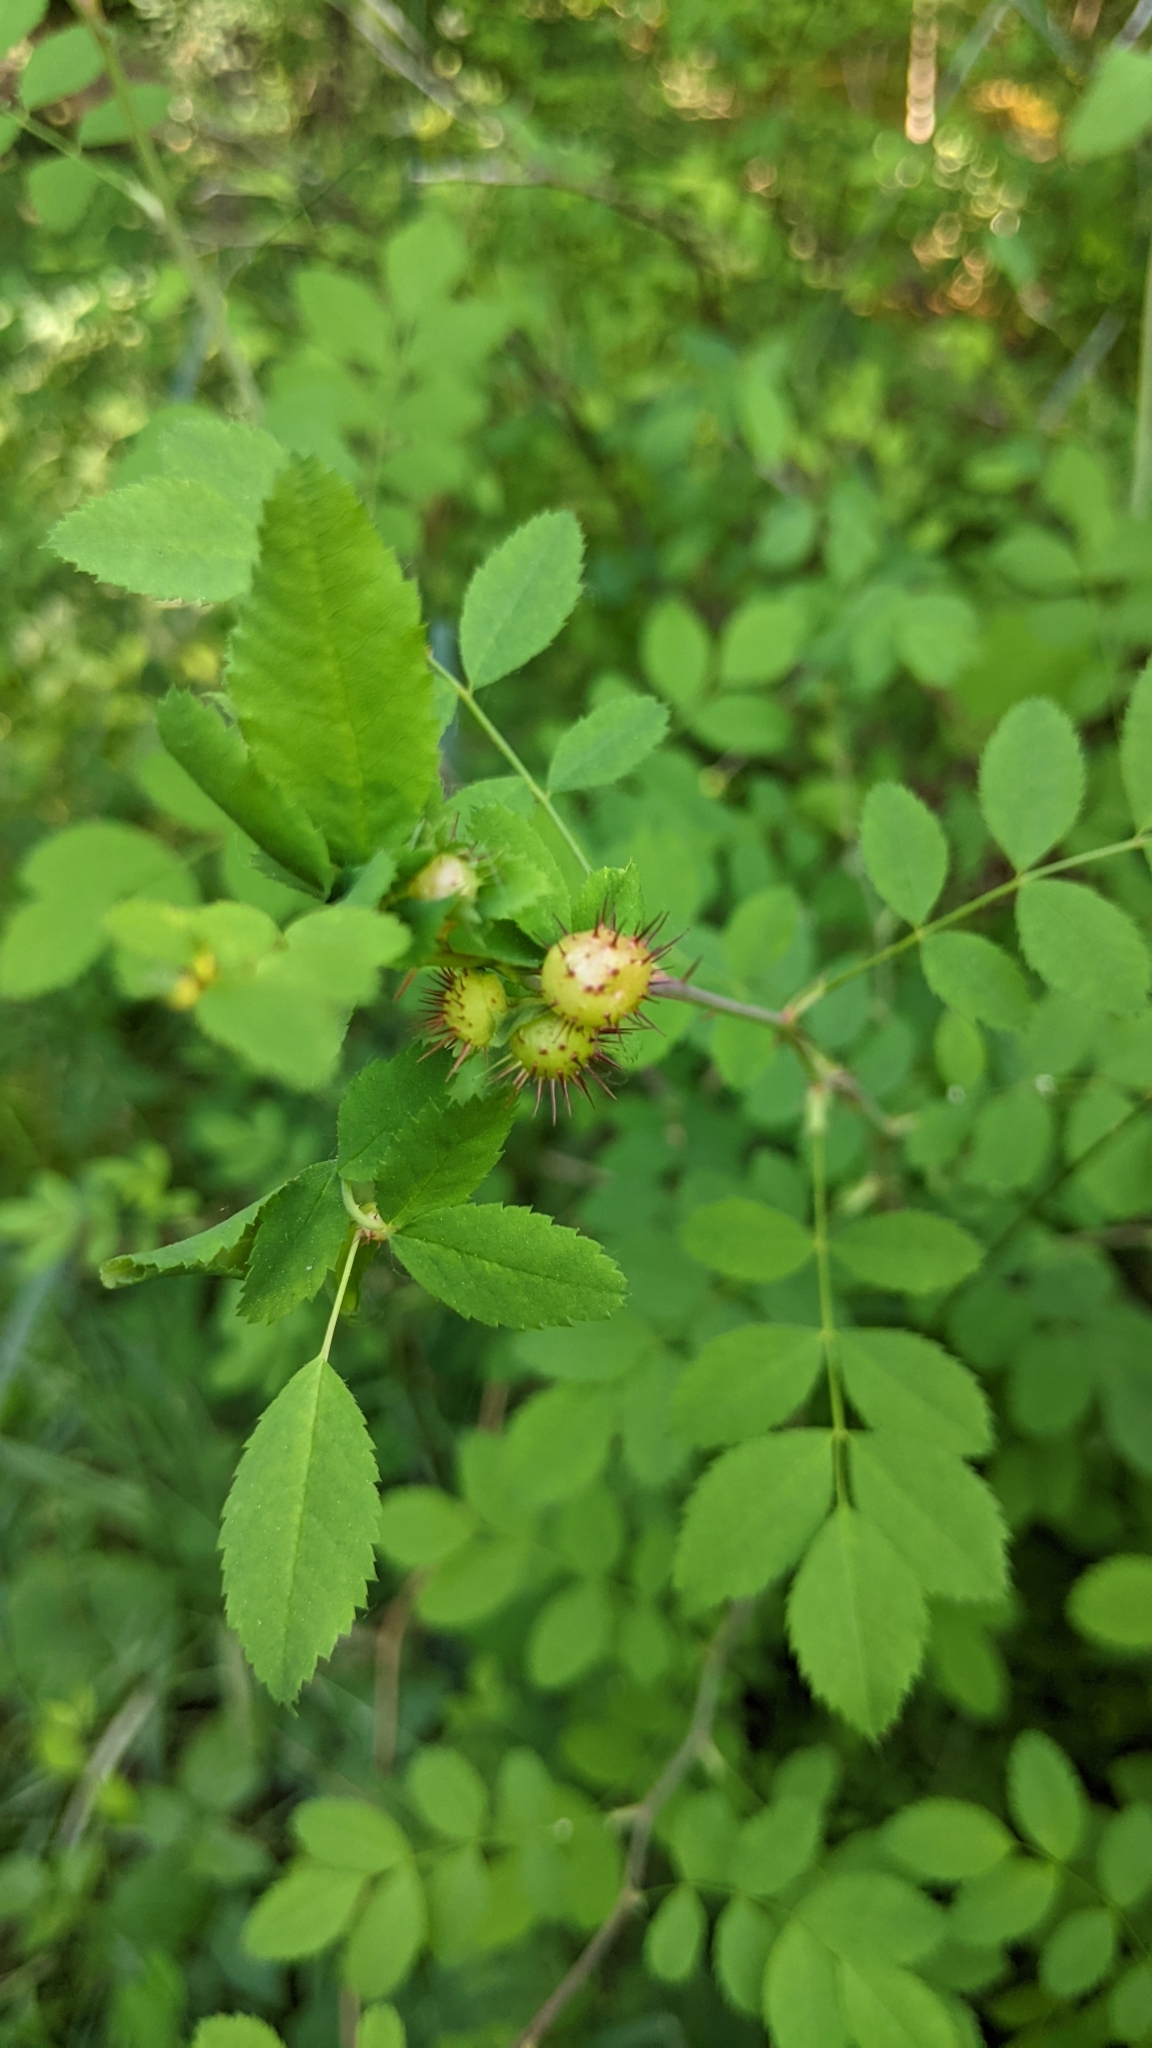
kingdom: Animalia
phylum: Arthropoda
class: Insecta
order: Hymenoptera
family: Cynipidae
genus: Diplolepis
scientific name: Diplolepis polita
